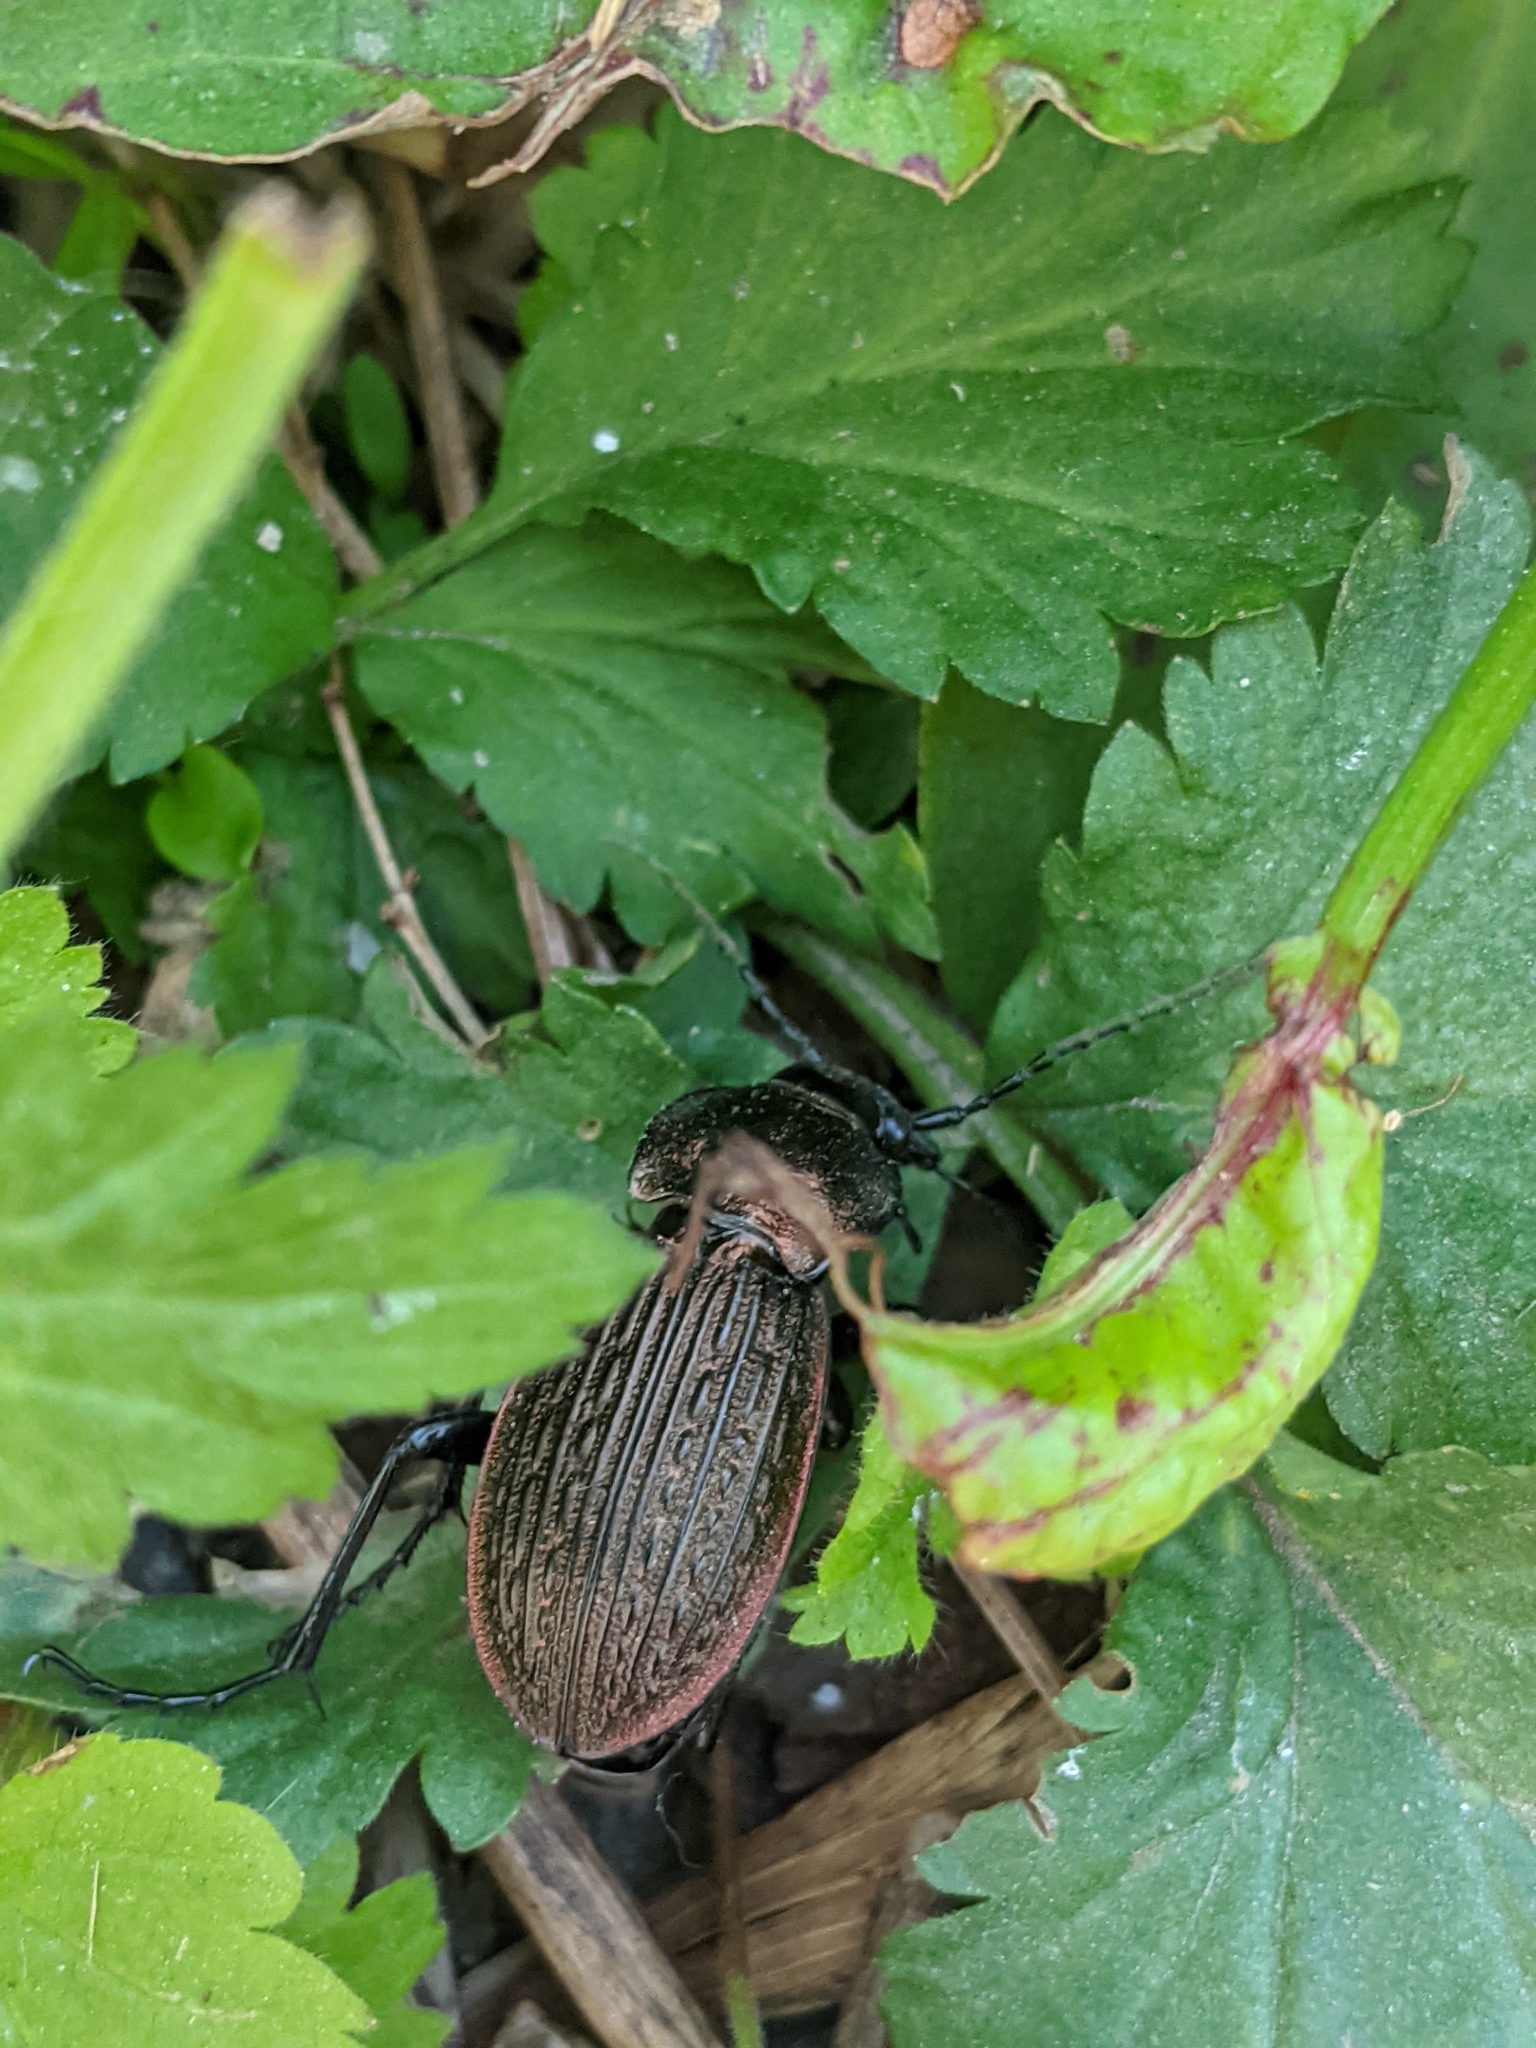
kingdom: Animalia
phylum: Arthropoda
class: Insecta
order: Coleoptera
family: Carabidae
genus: Carabus
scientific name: Carabus ulrichii
